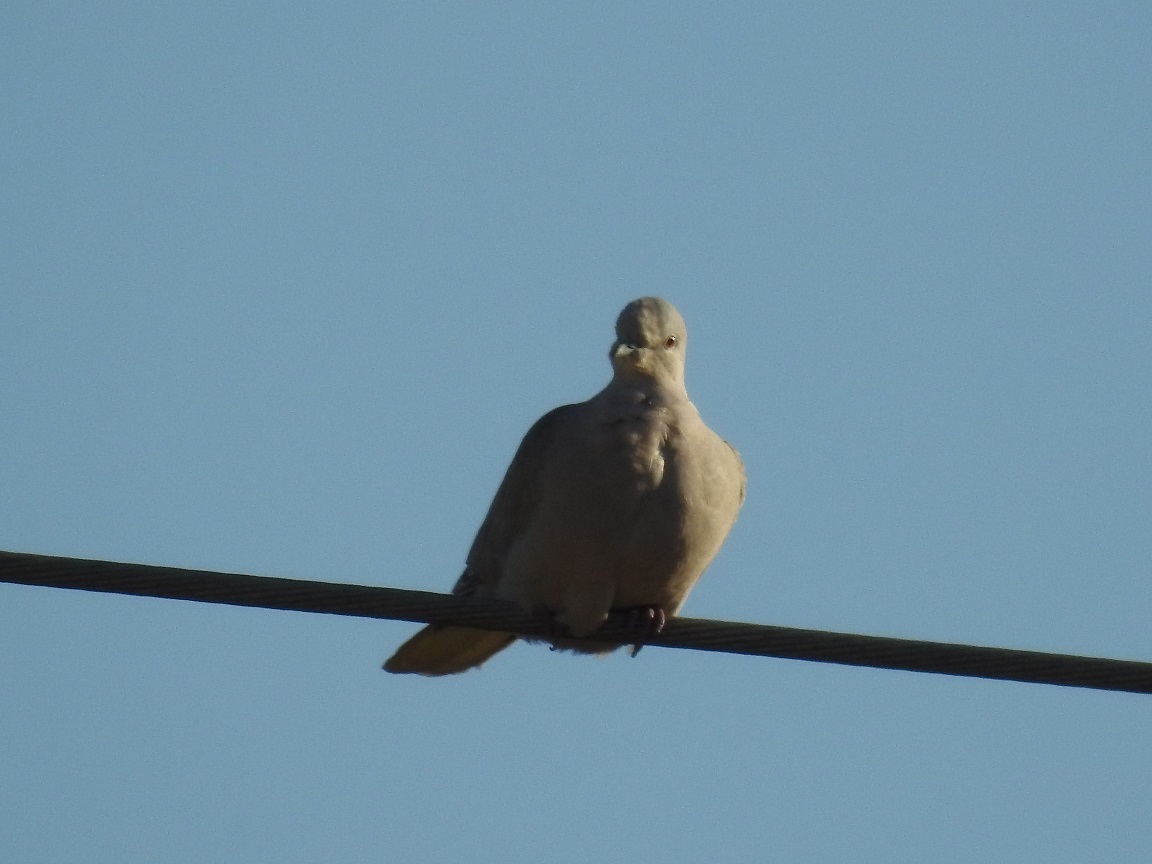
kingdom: Animalia
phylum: Chordata
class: Aves
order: Columbiformes
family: Columbidae
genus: Streptopelia
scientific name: Streptopelia decaocto
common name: Eurasian collared dove
